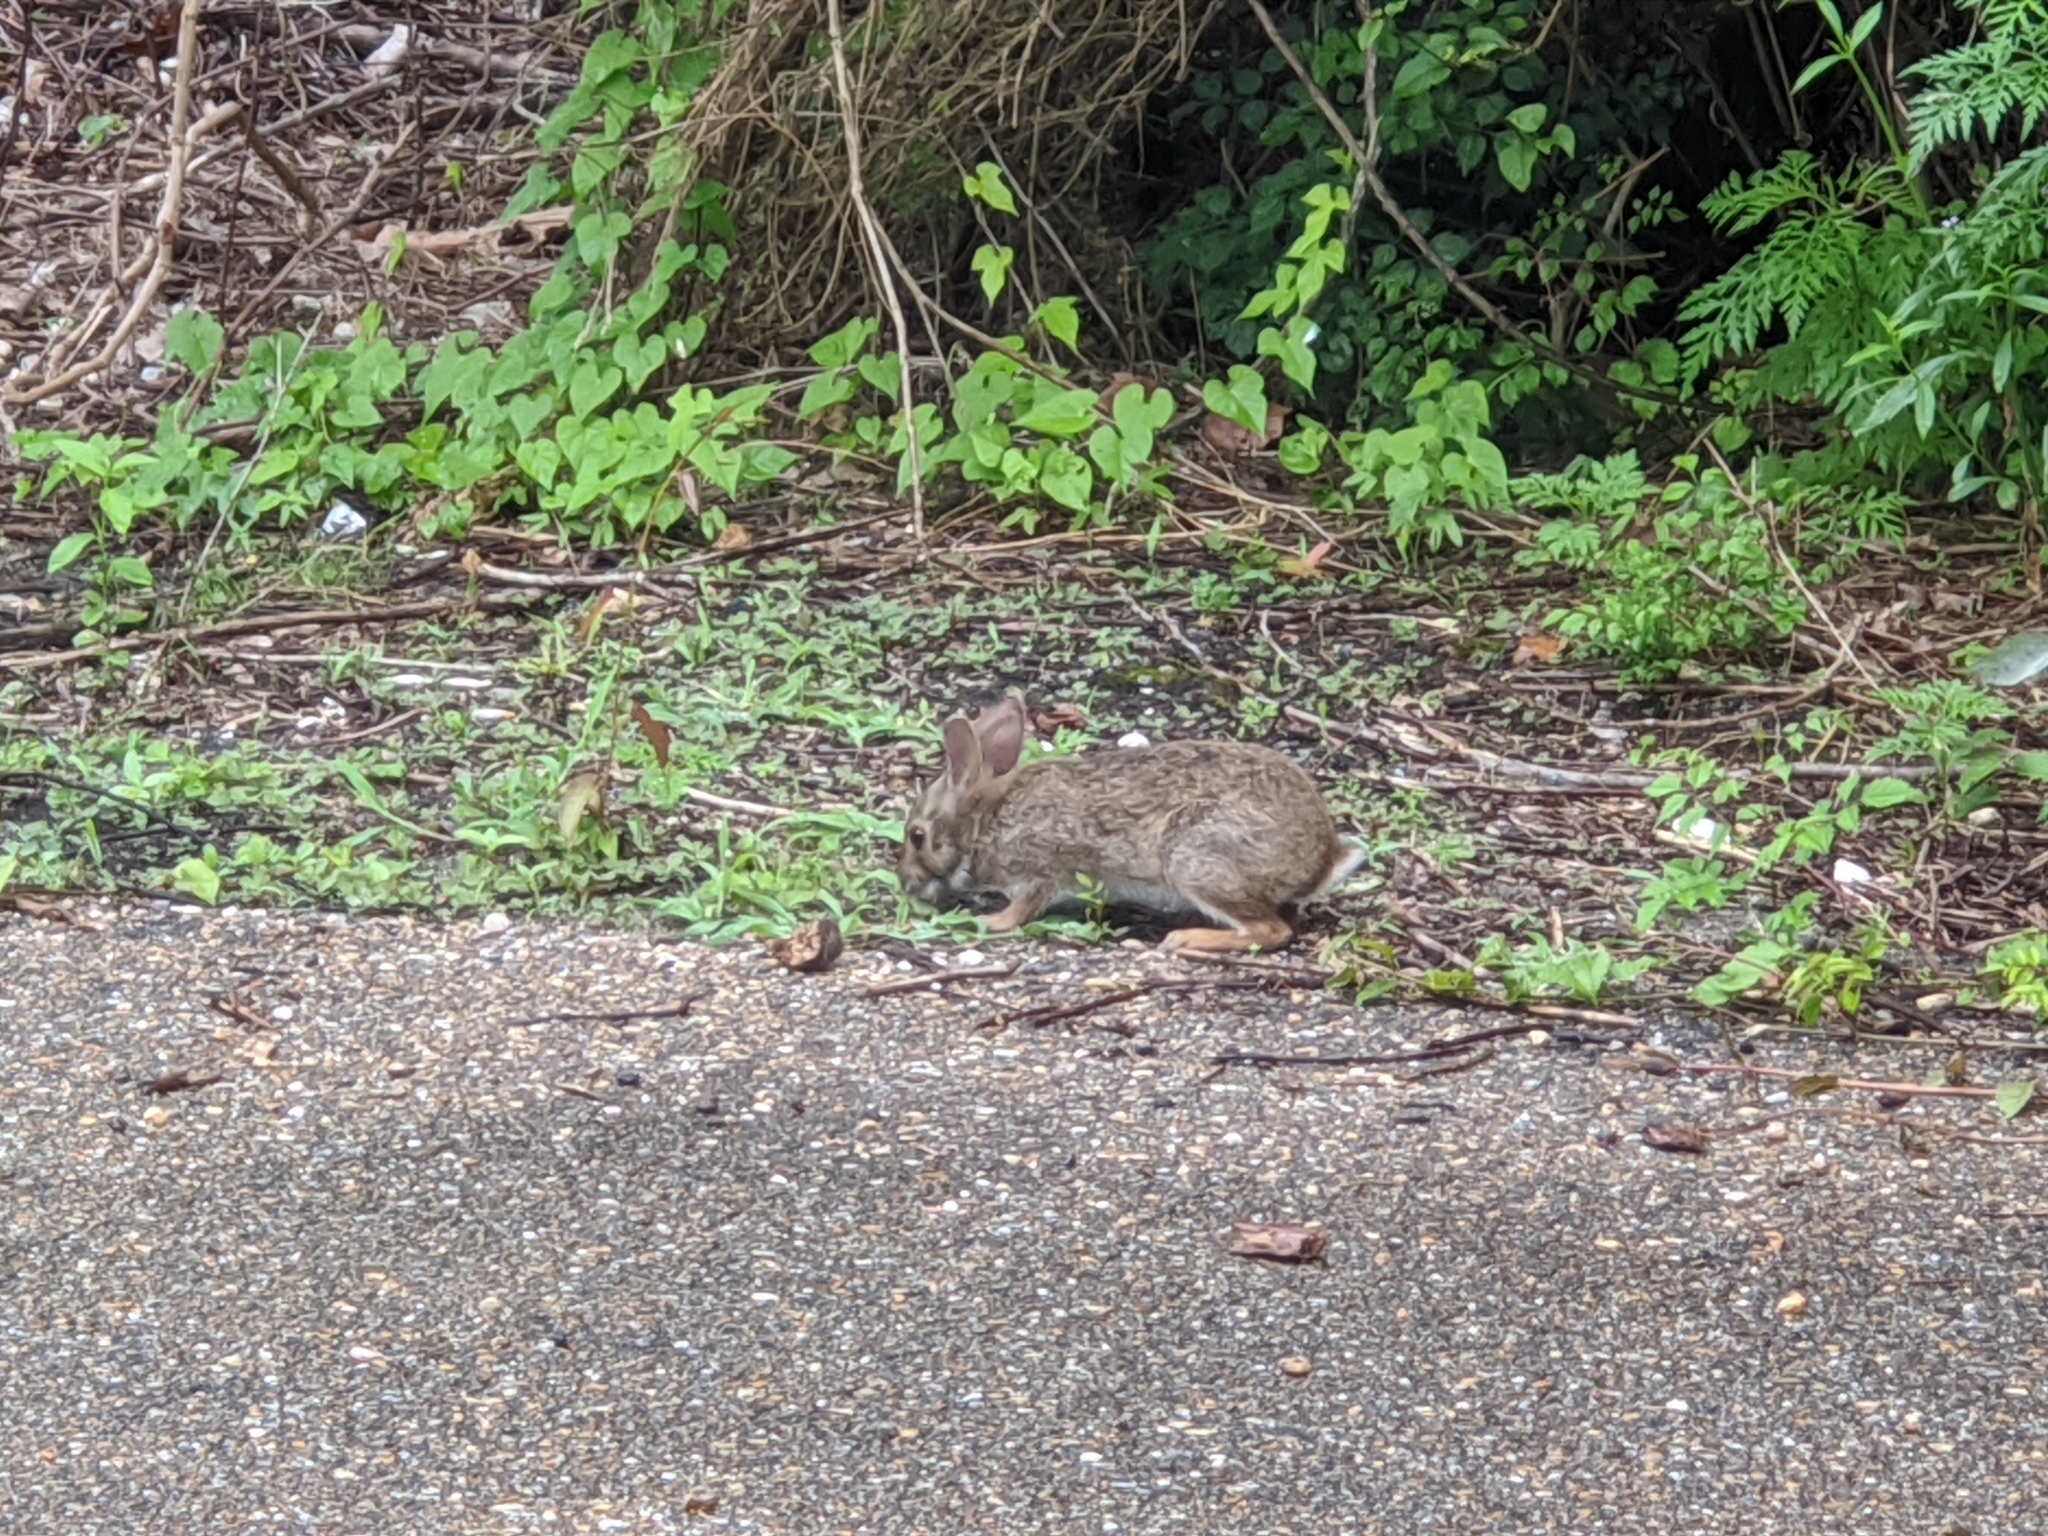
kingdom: Animalia
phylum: Chordata
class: Mammalia
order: Lagomorpha
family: Leporidae
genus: Sylvilagus
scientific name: Sylvilagus aquaticus
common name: Swamp rabbit
